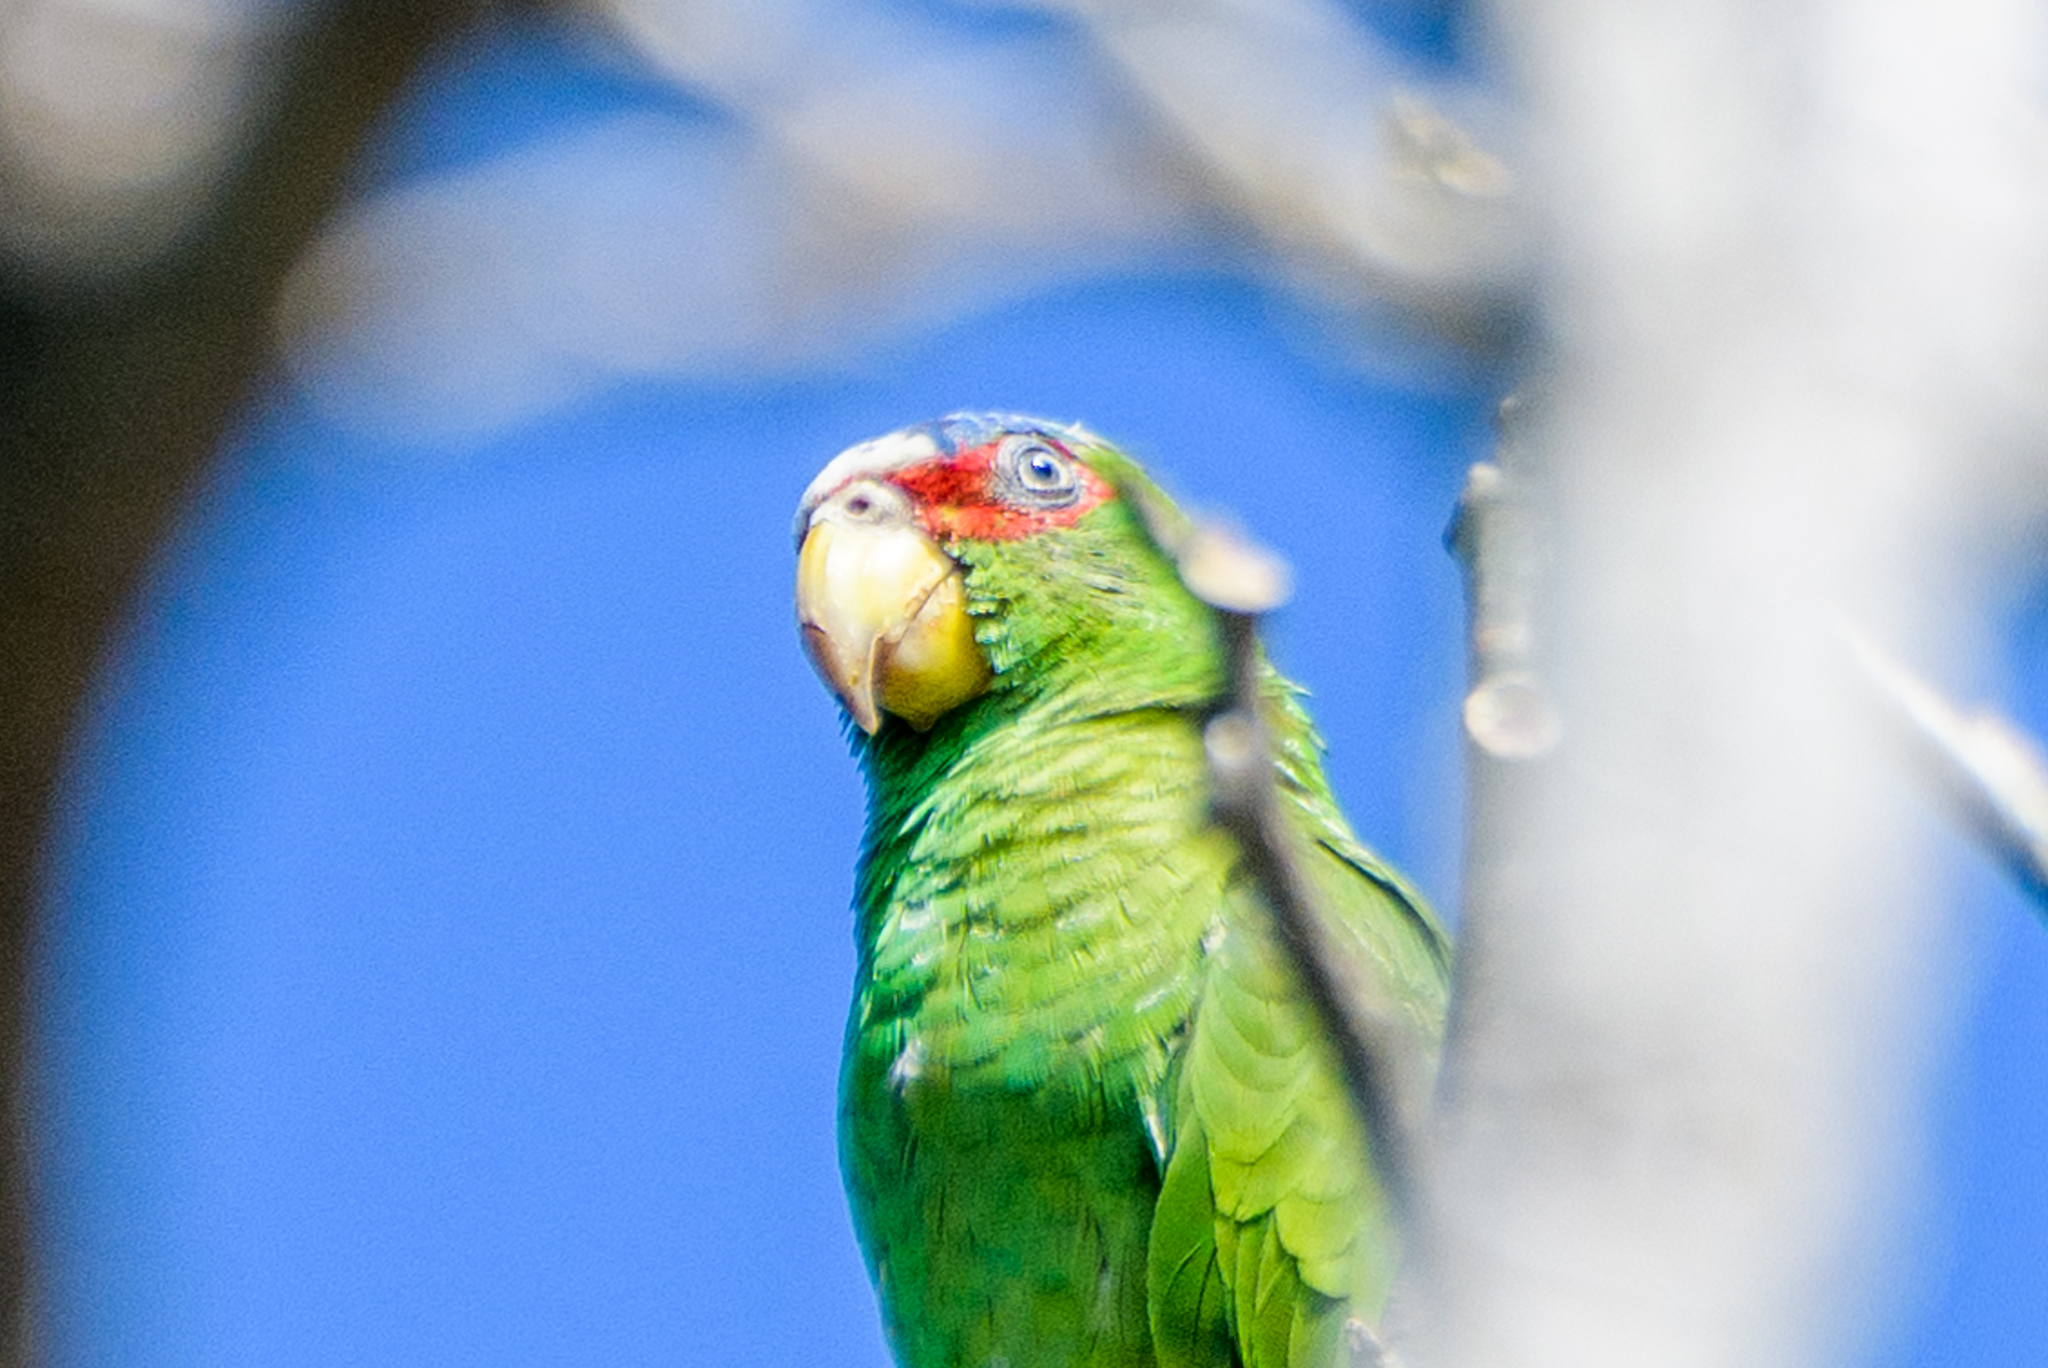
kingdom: Animalia
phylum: Chordata
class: Aves
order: Psittaciformes
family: Psittacidae
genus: Amazona
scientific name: Amazona albifrons
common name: White-fronted amazon
